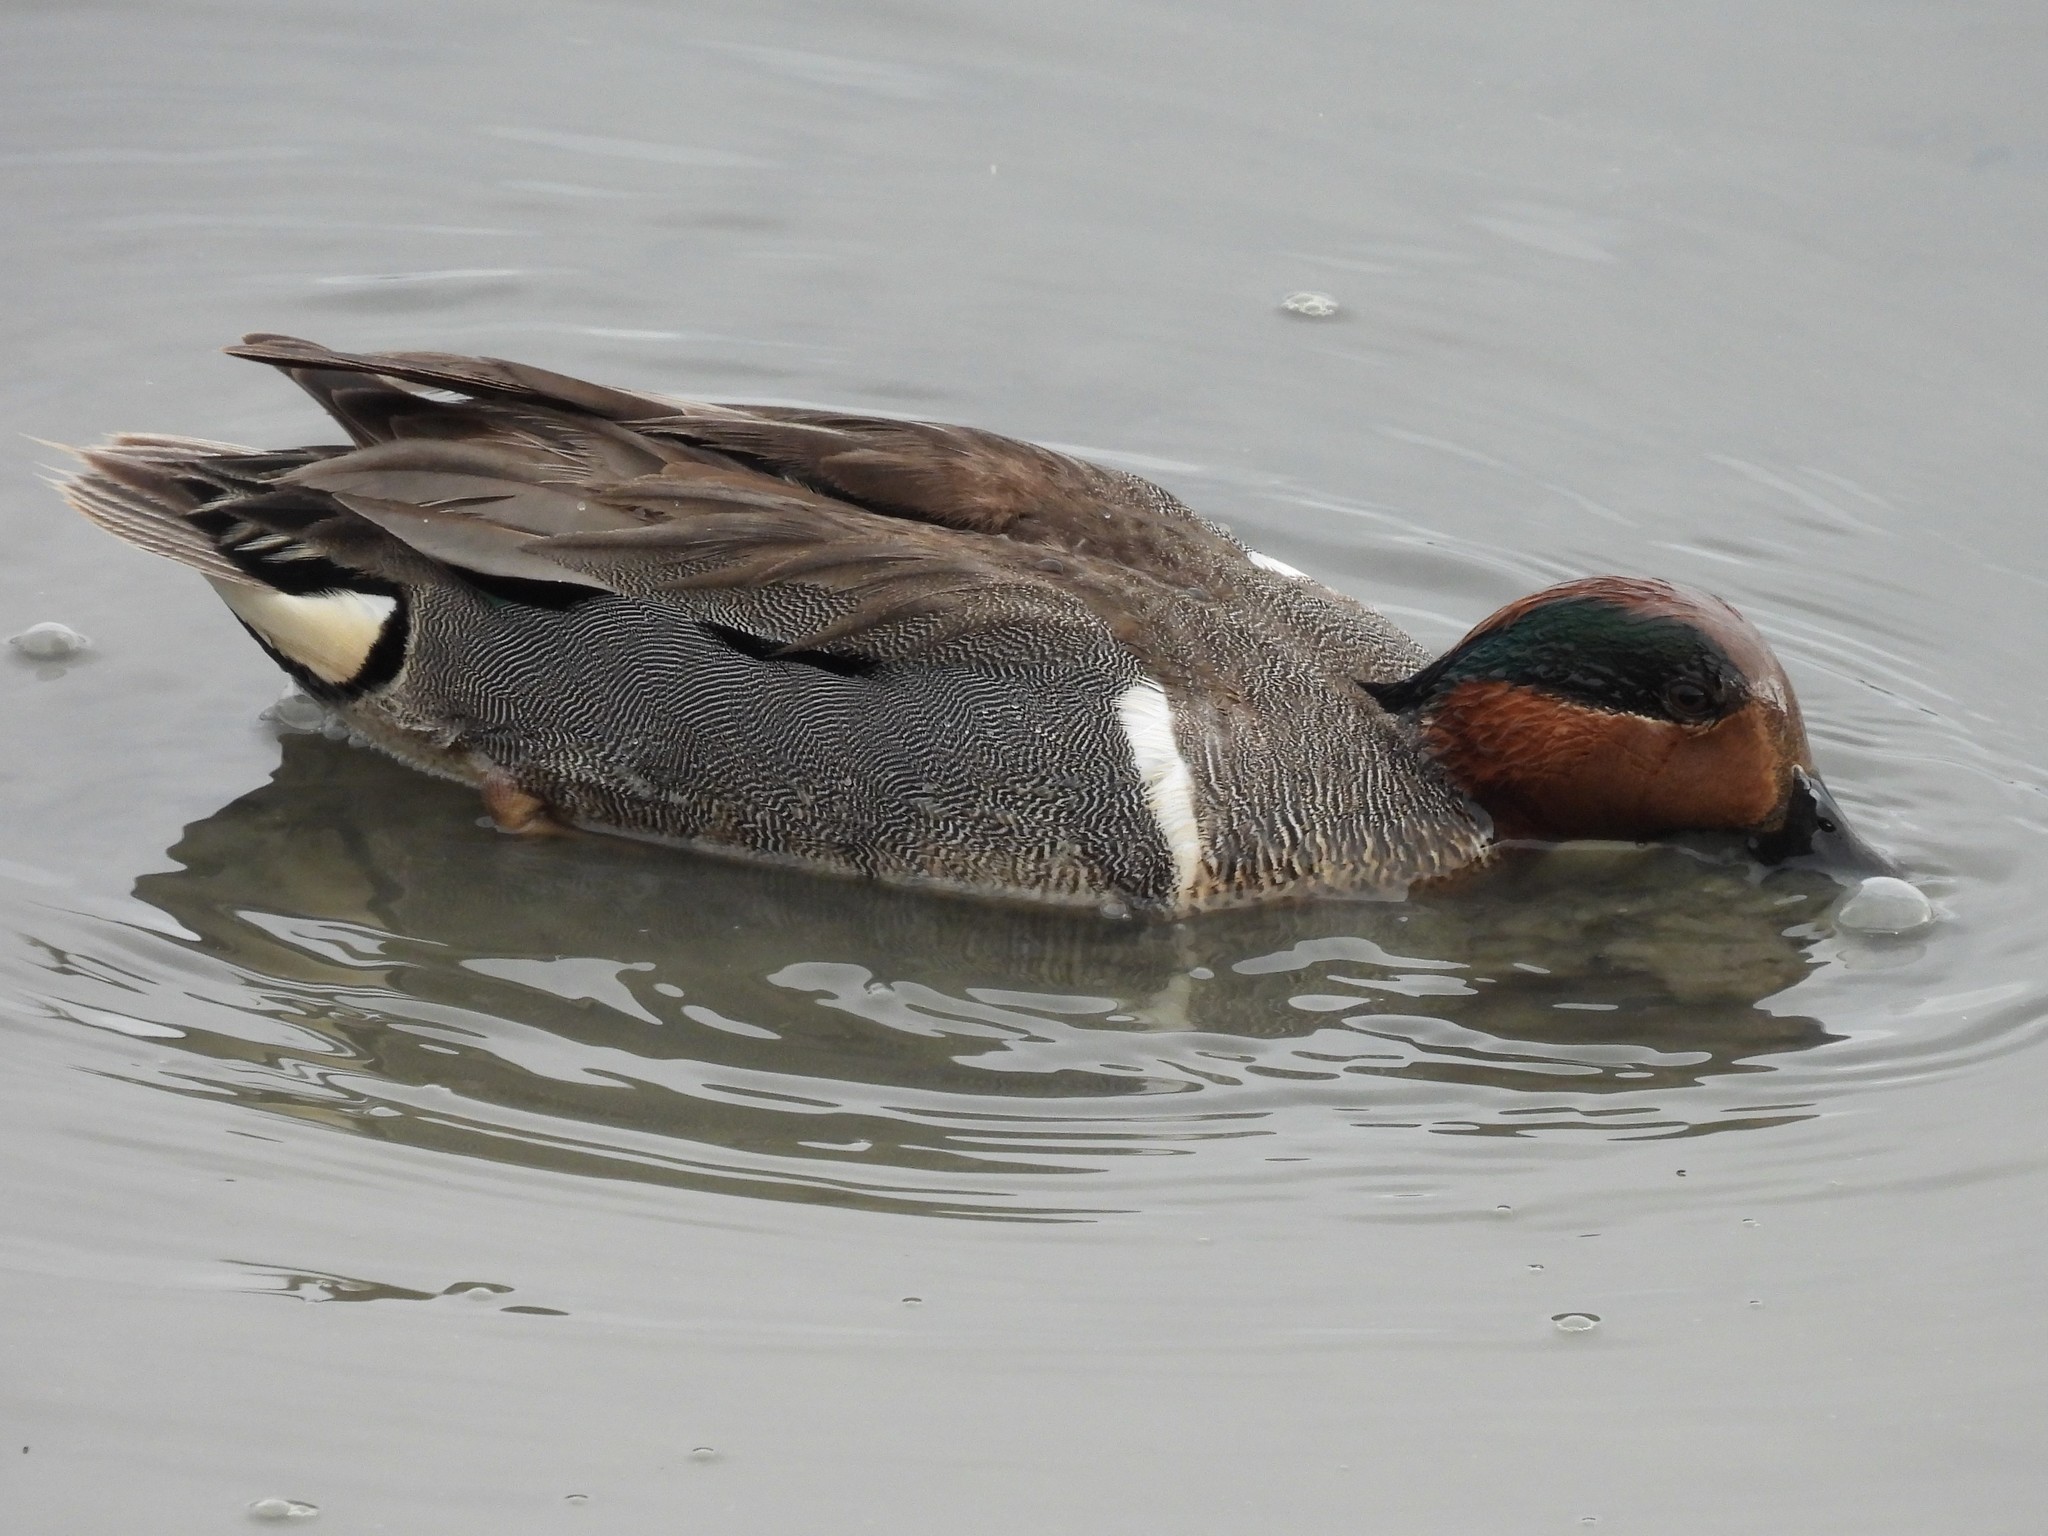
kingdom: Animalia
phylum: Chordata
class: Aves
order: Anseriformes
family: Anatidae
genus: Anas
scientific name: Anas crecca
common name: Eurasian teal
